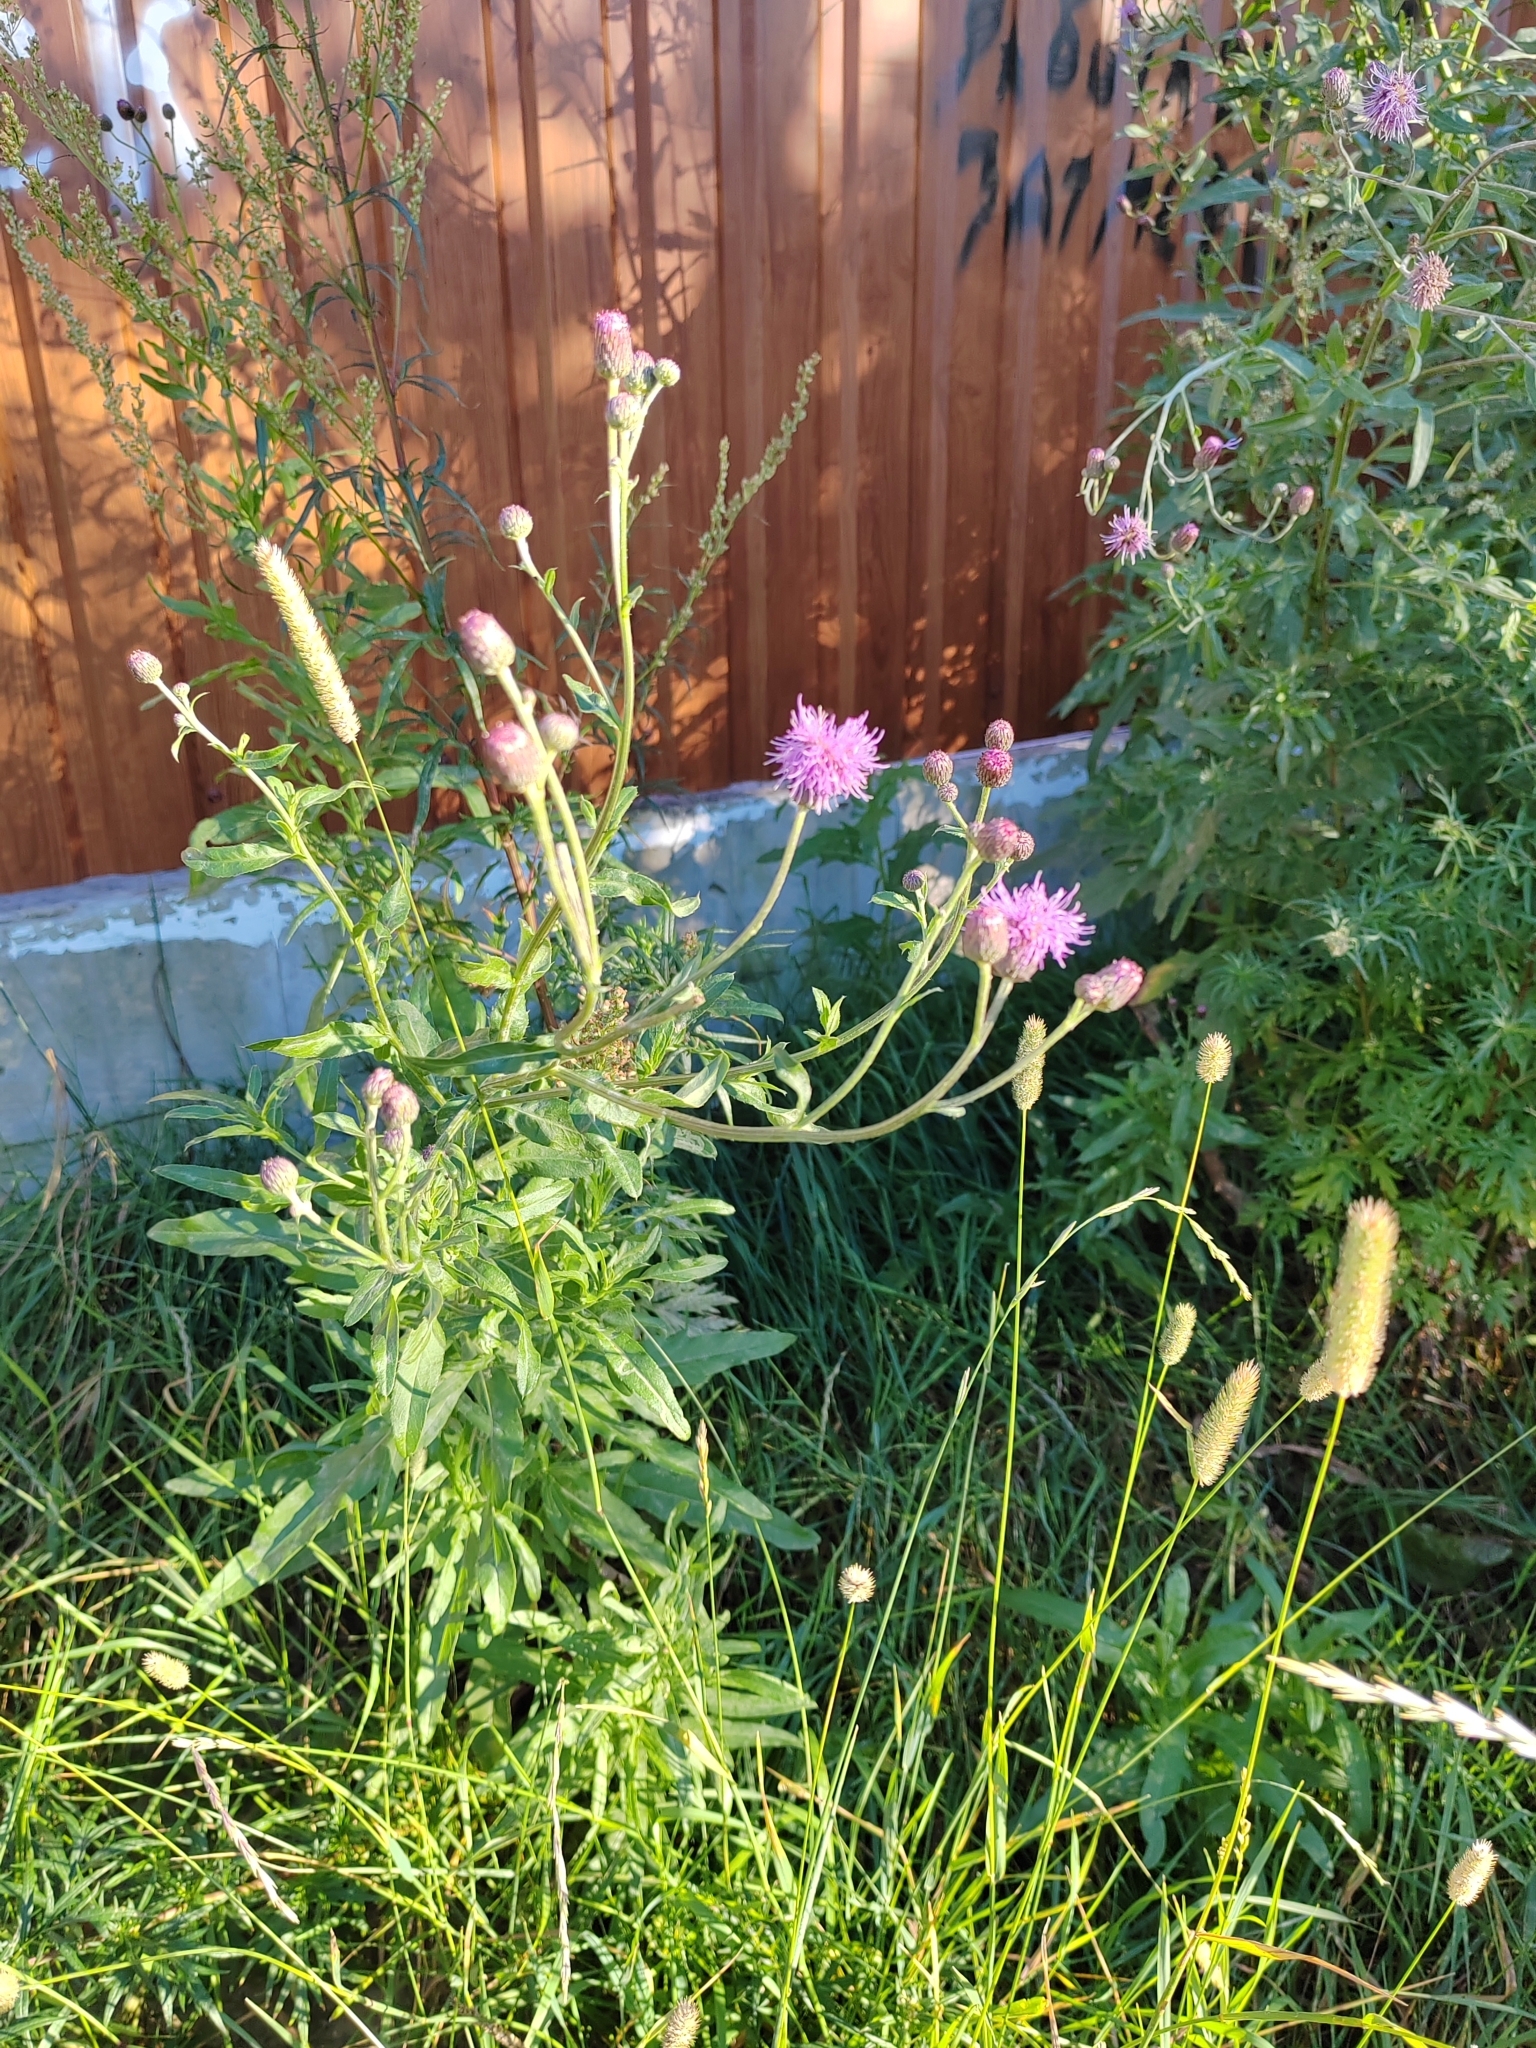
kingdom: Plantae
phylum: Tracheophyta
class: Magnoliopsida
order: Asterales
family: Asteraceae
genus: Cirsium
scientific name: Cirsium arvense
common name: Creeping thistle
